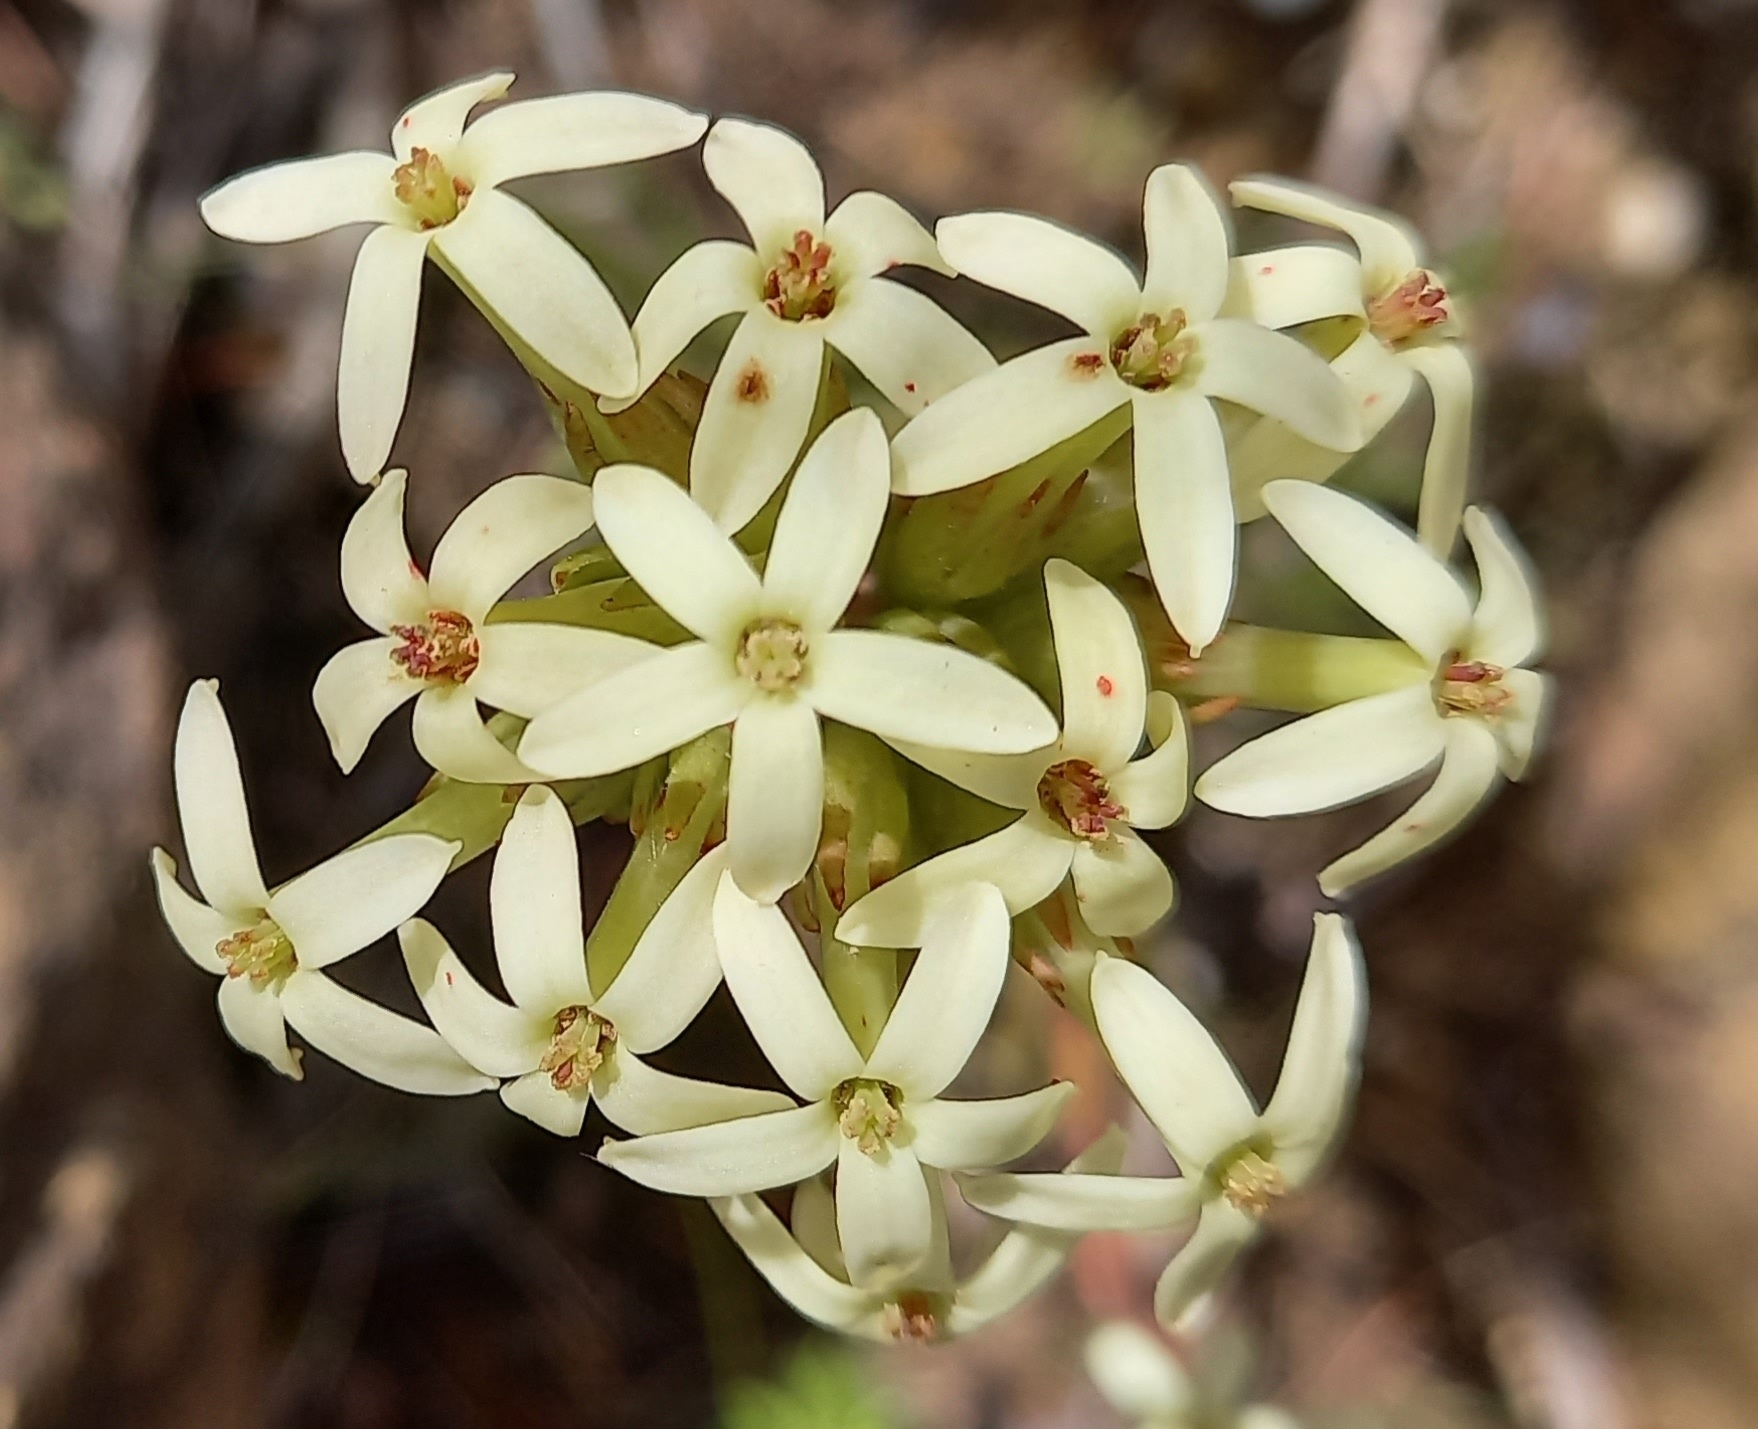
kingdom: Plantae
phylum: Tracheophyta
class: Magnoliopsida
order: Saxifragales
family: Crassulaceae
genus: Crassula
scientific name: Crassula fascicularis
